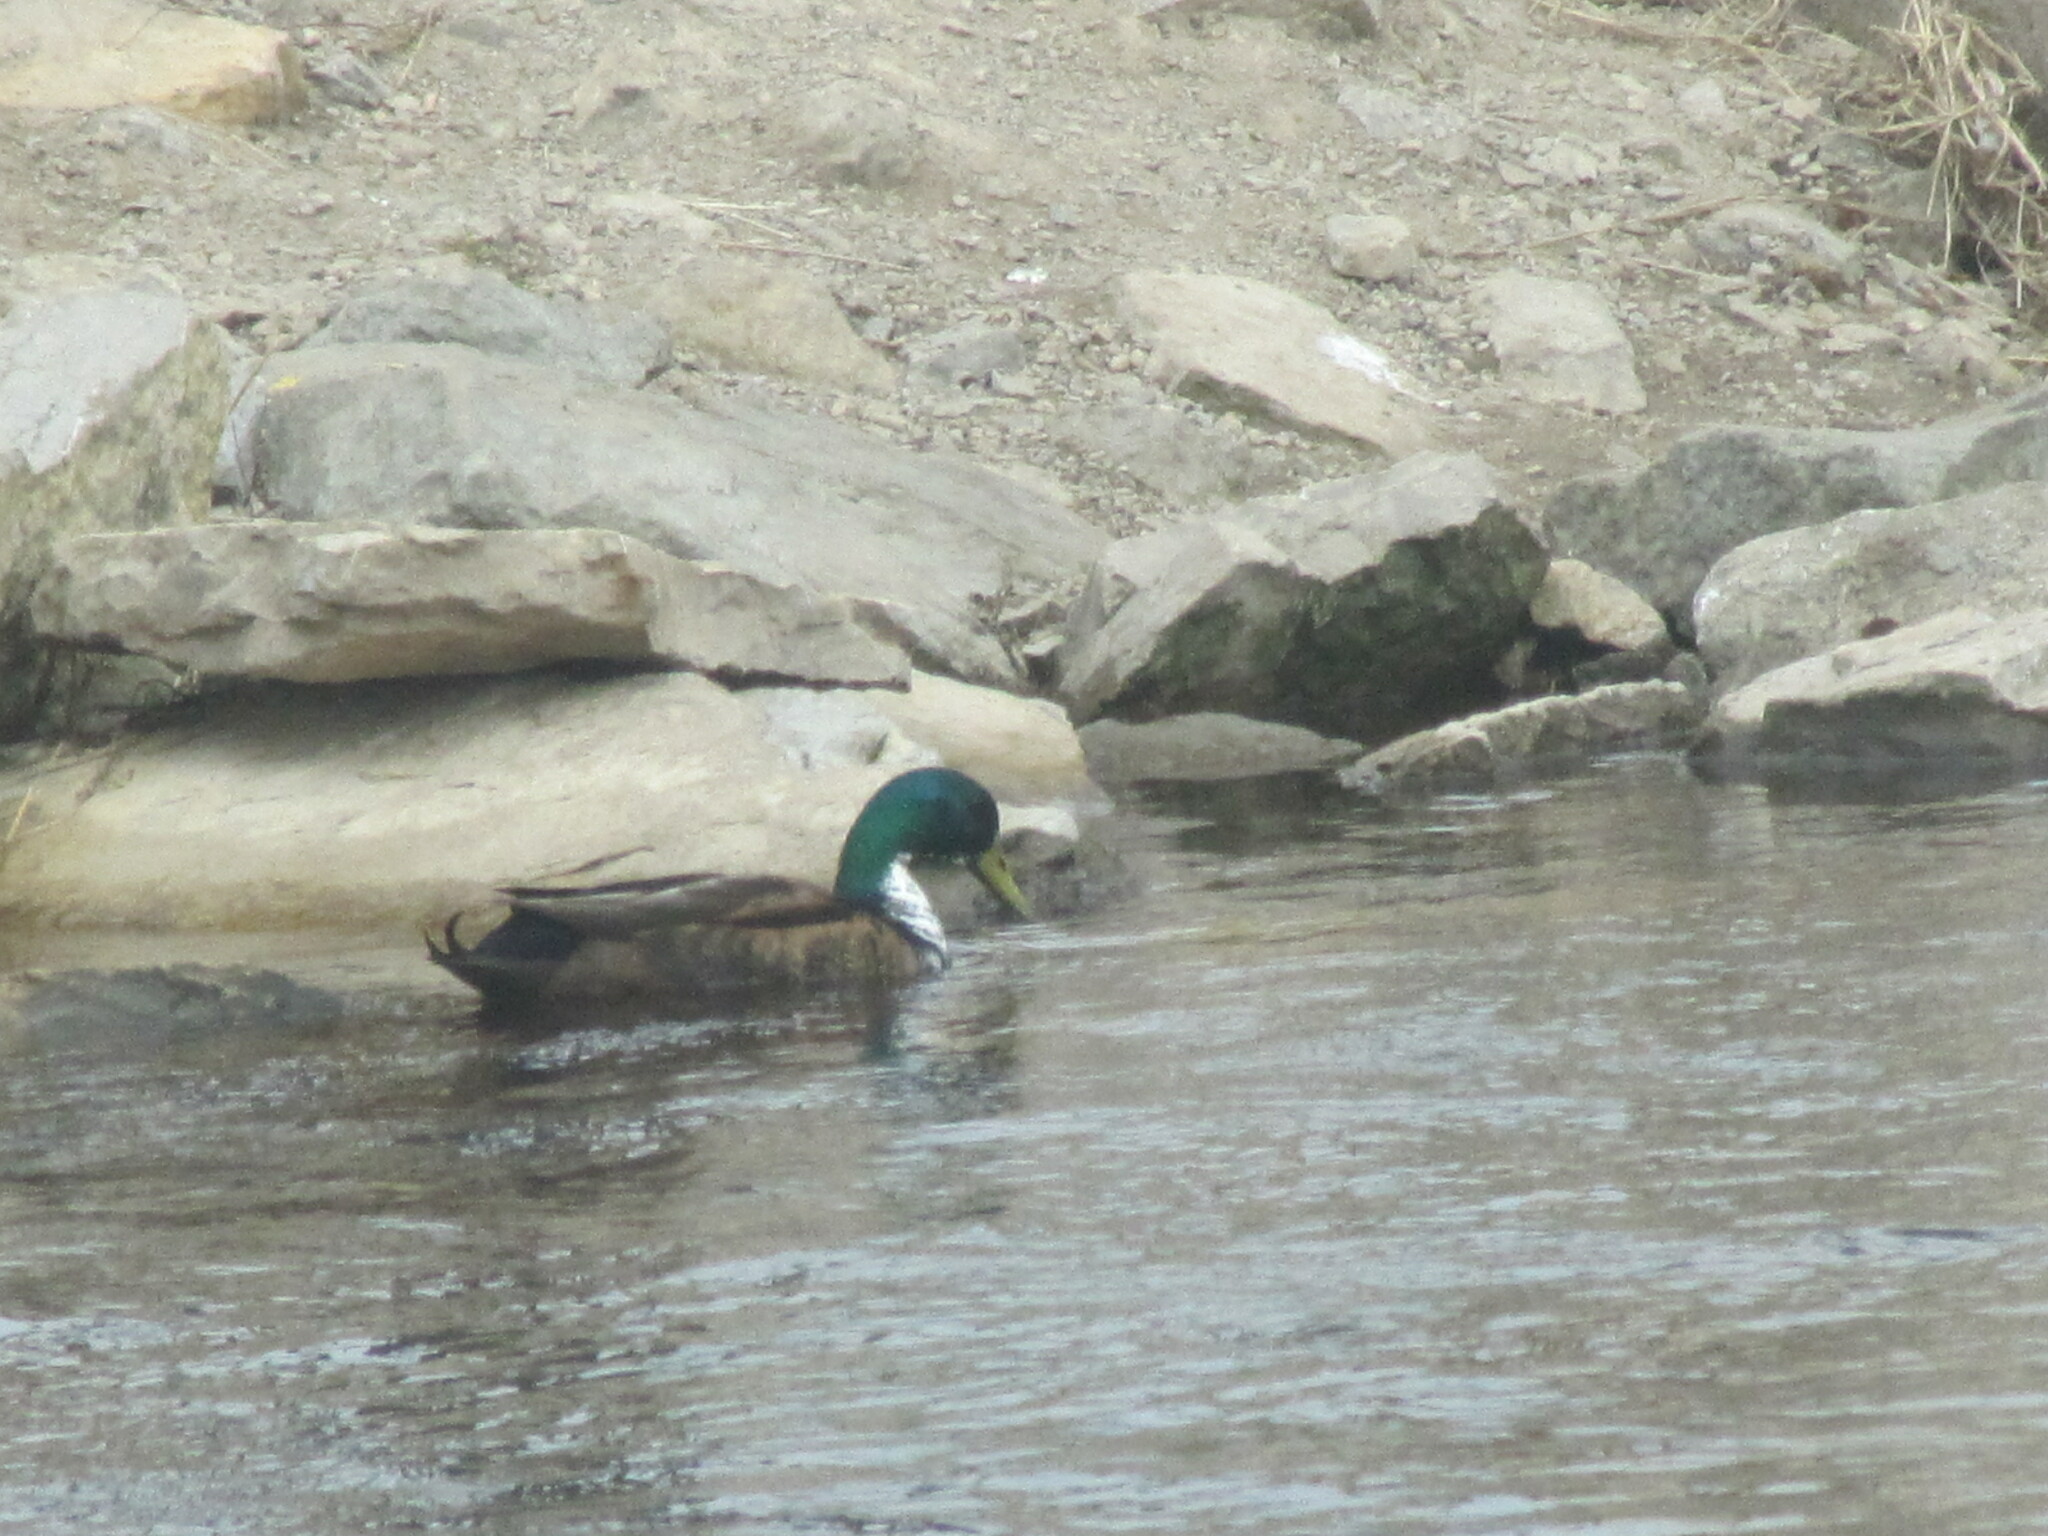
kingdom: Animalia
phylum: Chordata
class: Aves
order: Anseriformes
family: Anatidae
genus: Anas
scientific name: Anas platyrhynchos
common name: Mallard
